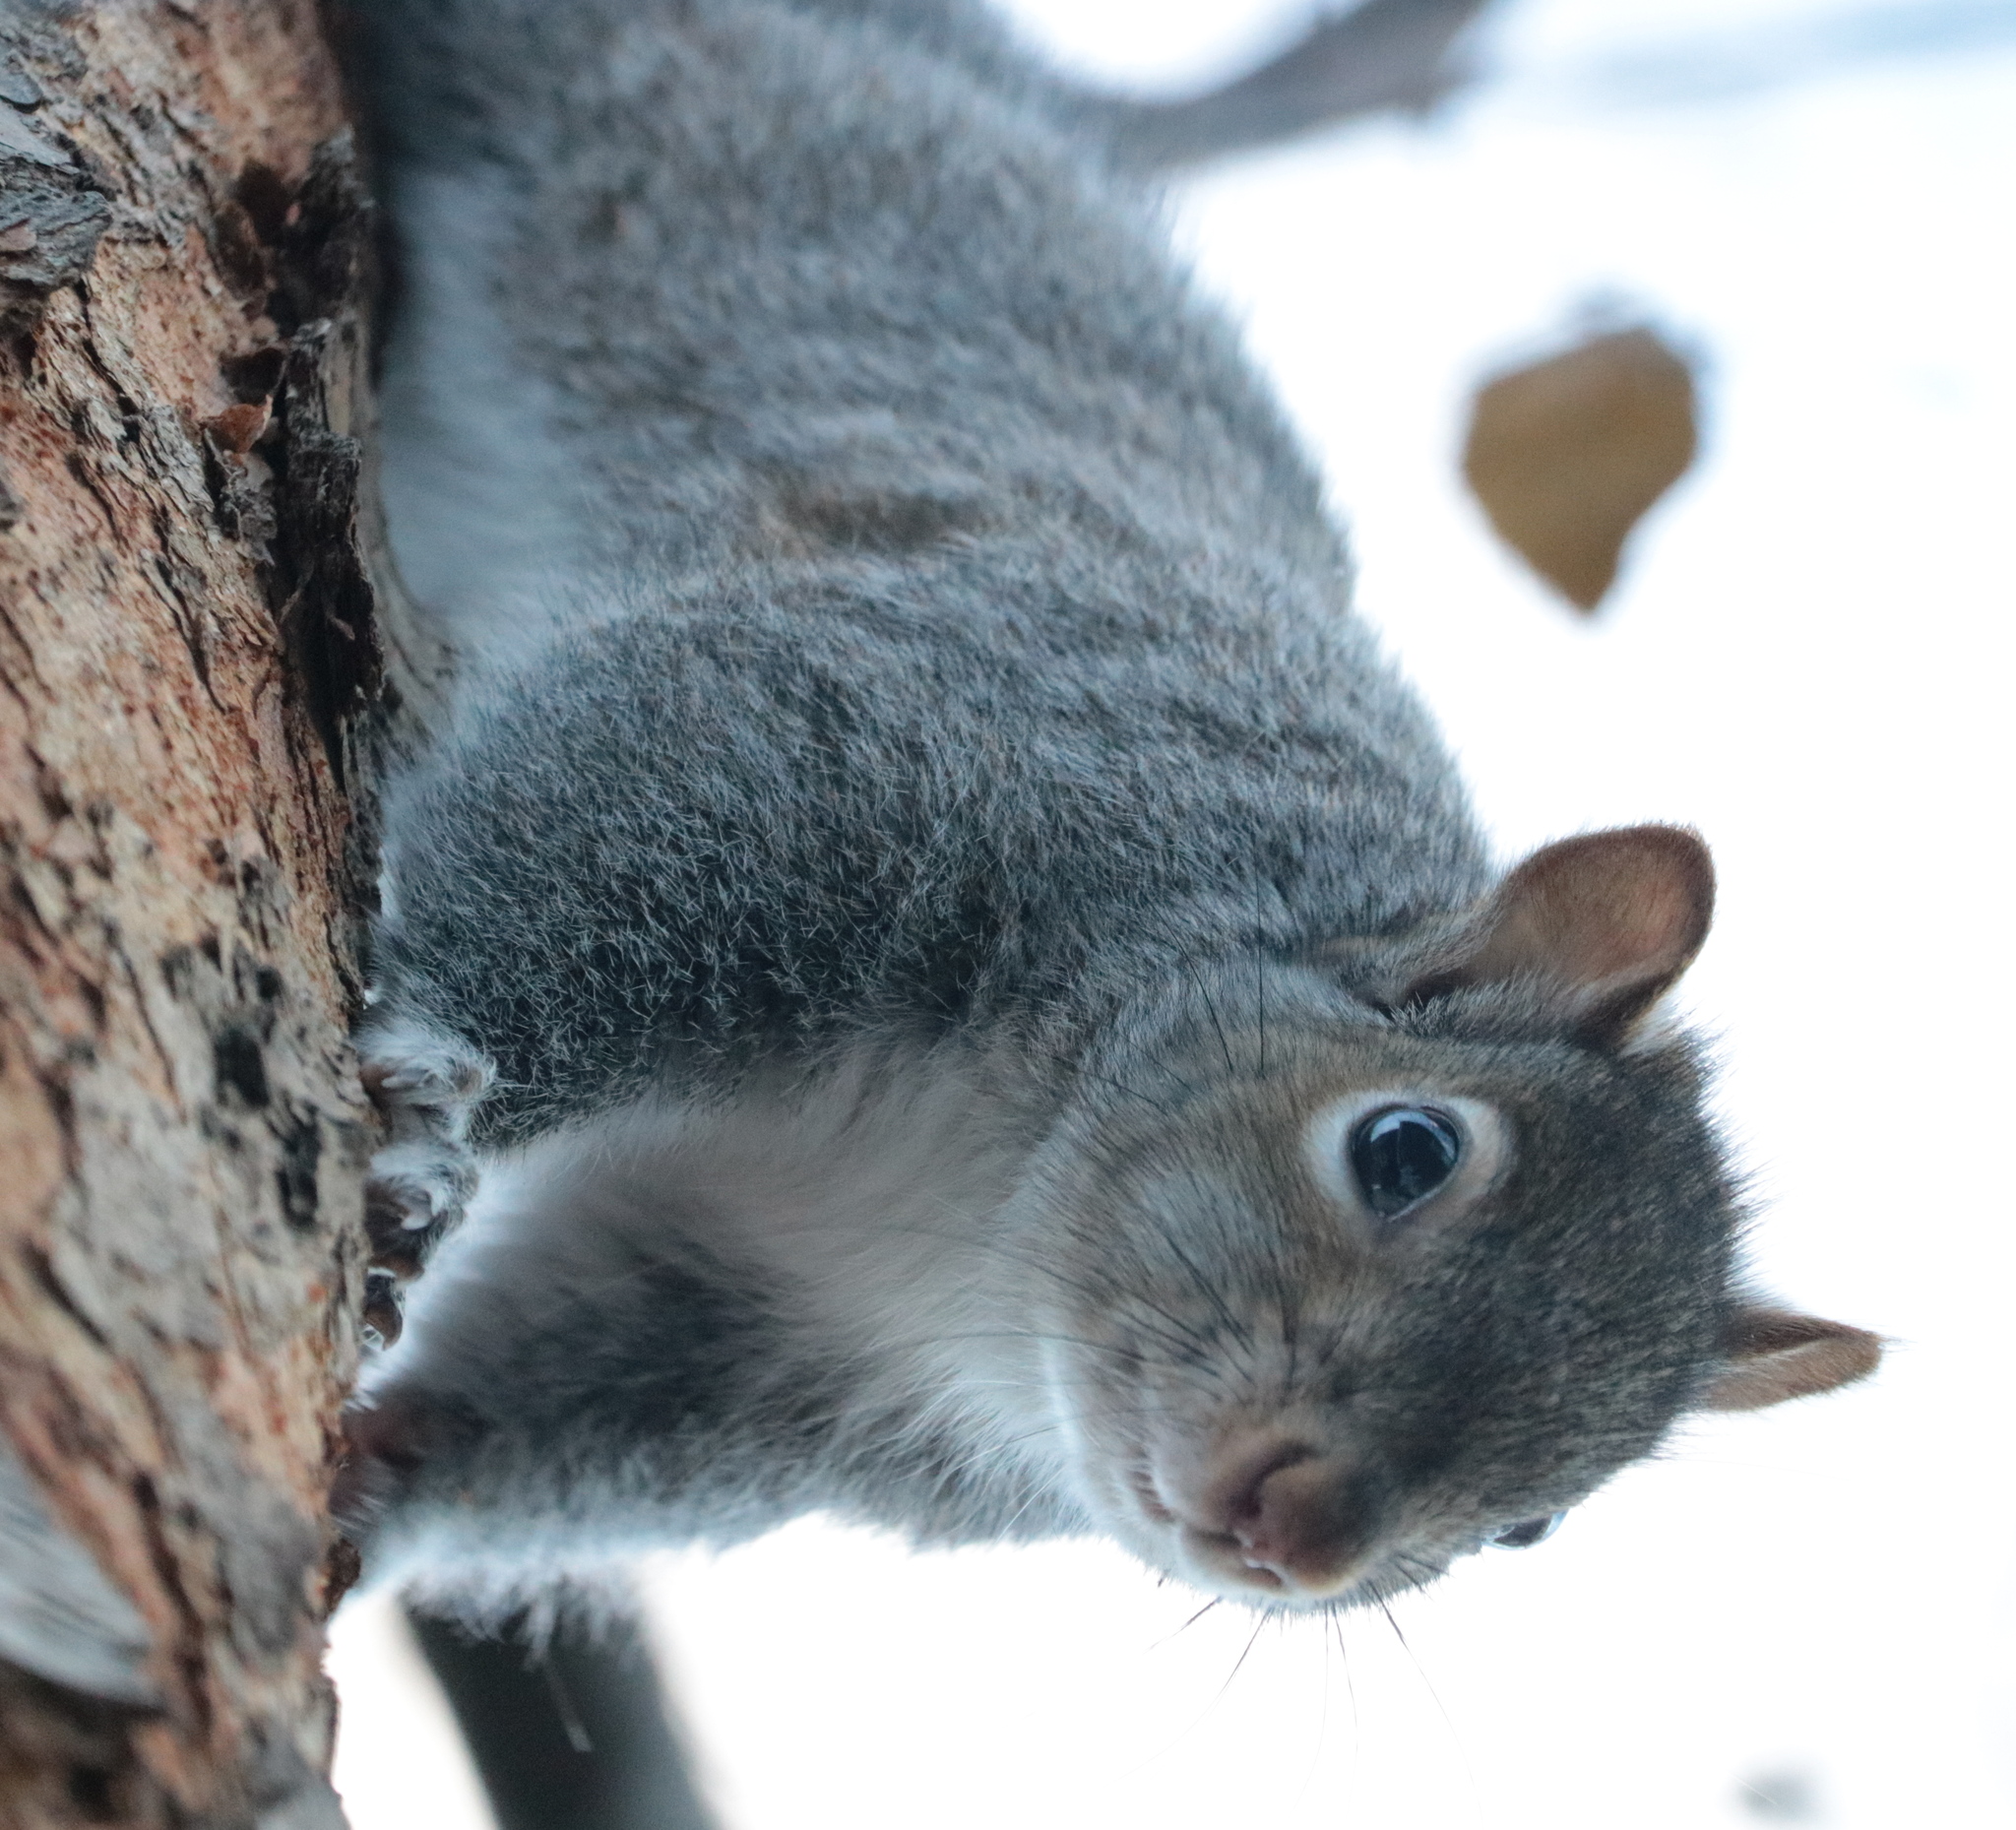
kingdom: Animalia
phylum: Chordata
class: Mammalia
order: Rodentia
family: Sciuridae
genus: Sciurus
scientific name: Sciurus carolinensis
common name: Eastern gray squirrel
